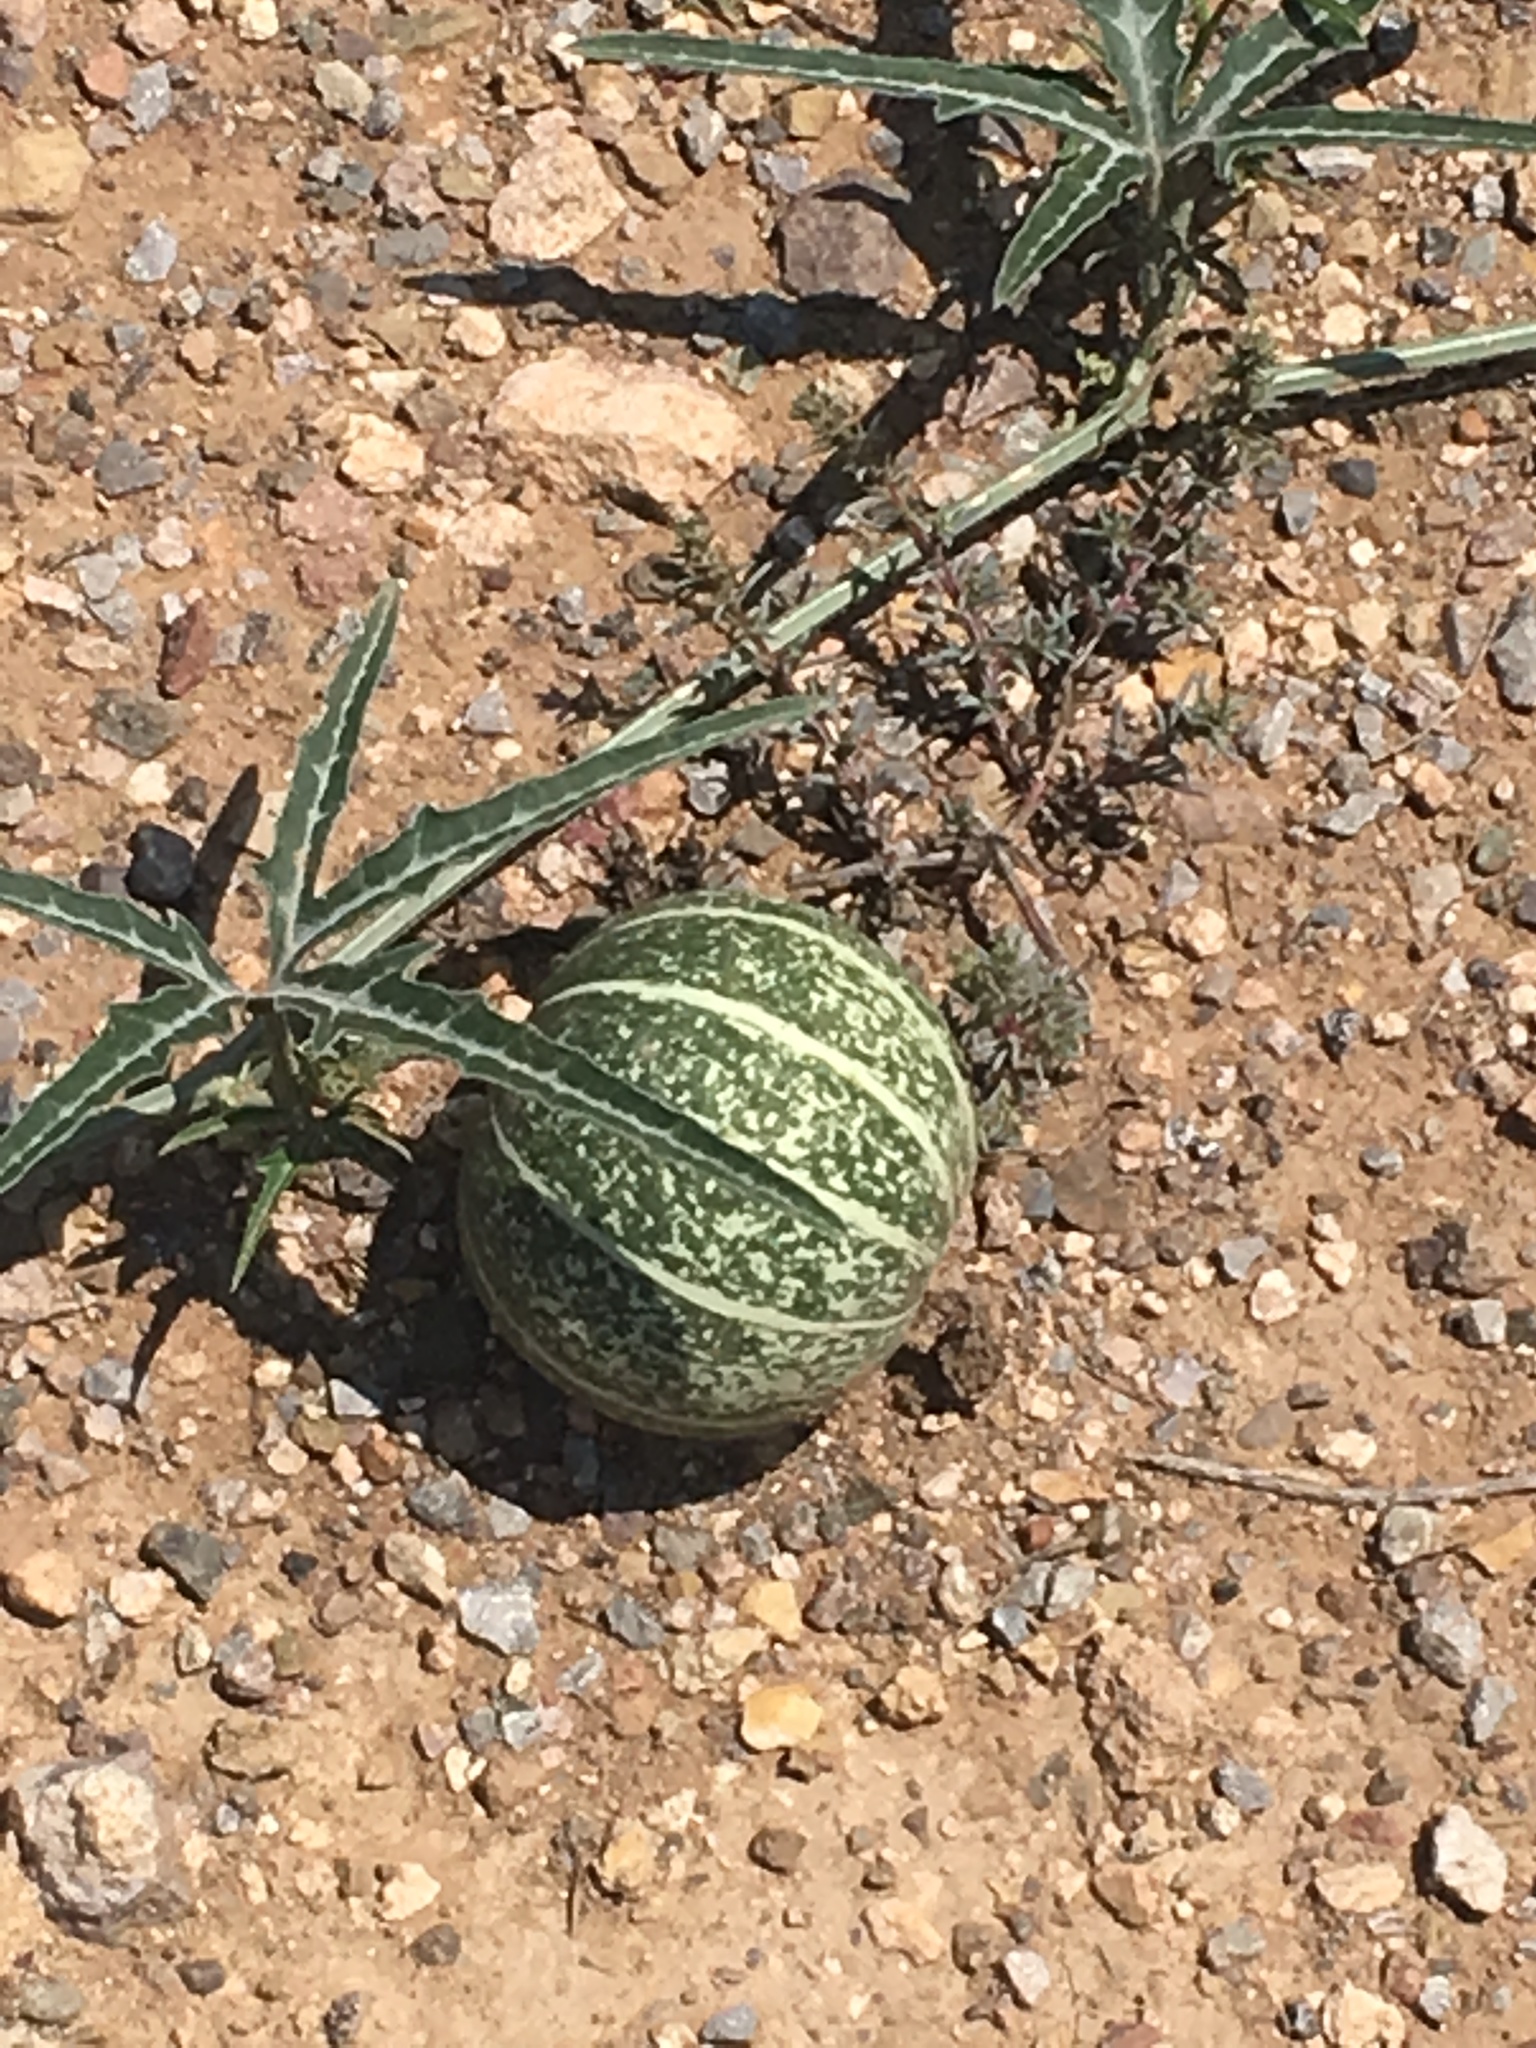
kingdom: Plantae
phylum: Tracheophyta
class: Magnoliopsida
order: Cucurbitales
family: Cucurbitaceae
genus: Cucurbita
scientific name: Cucurbita digitata
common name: Finger-leaf gourd
